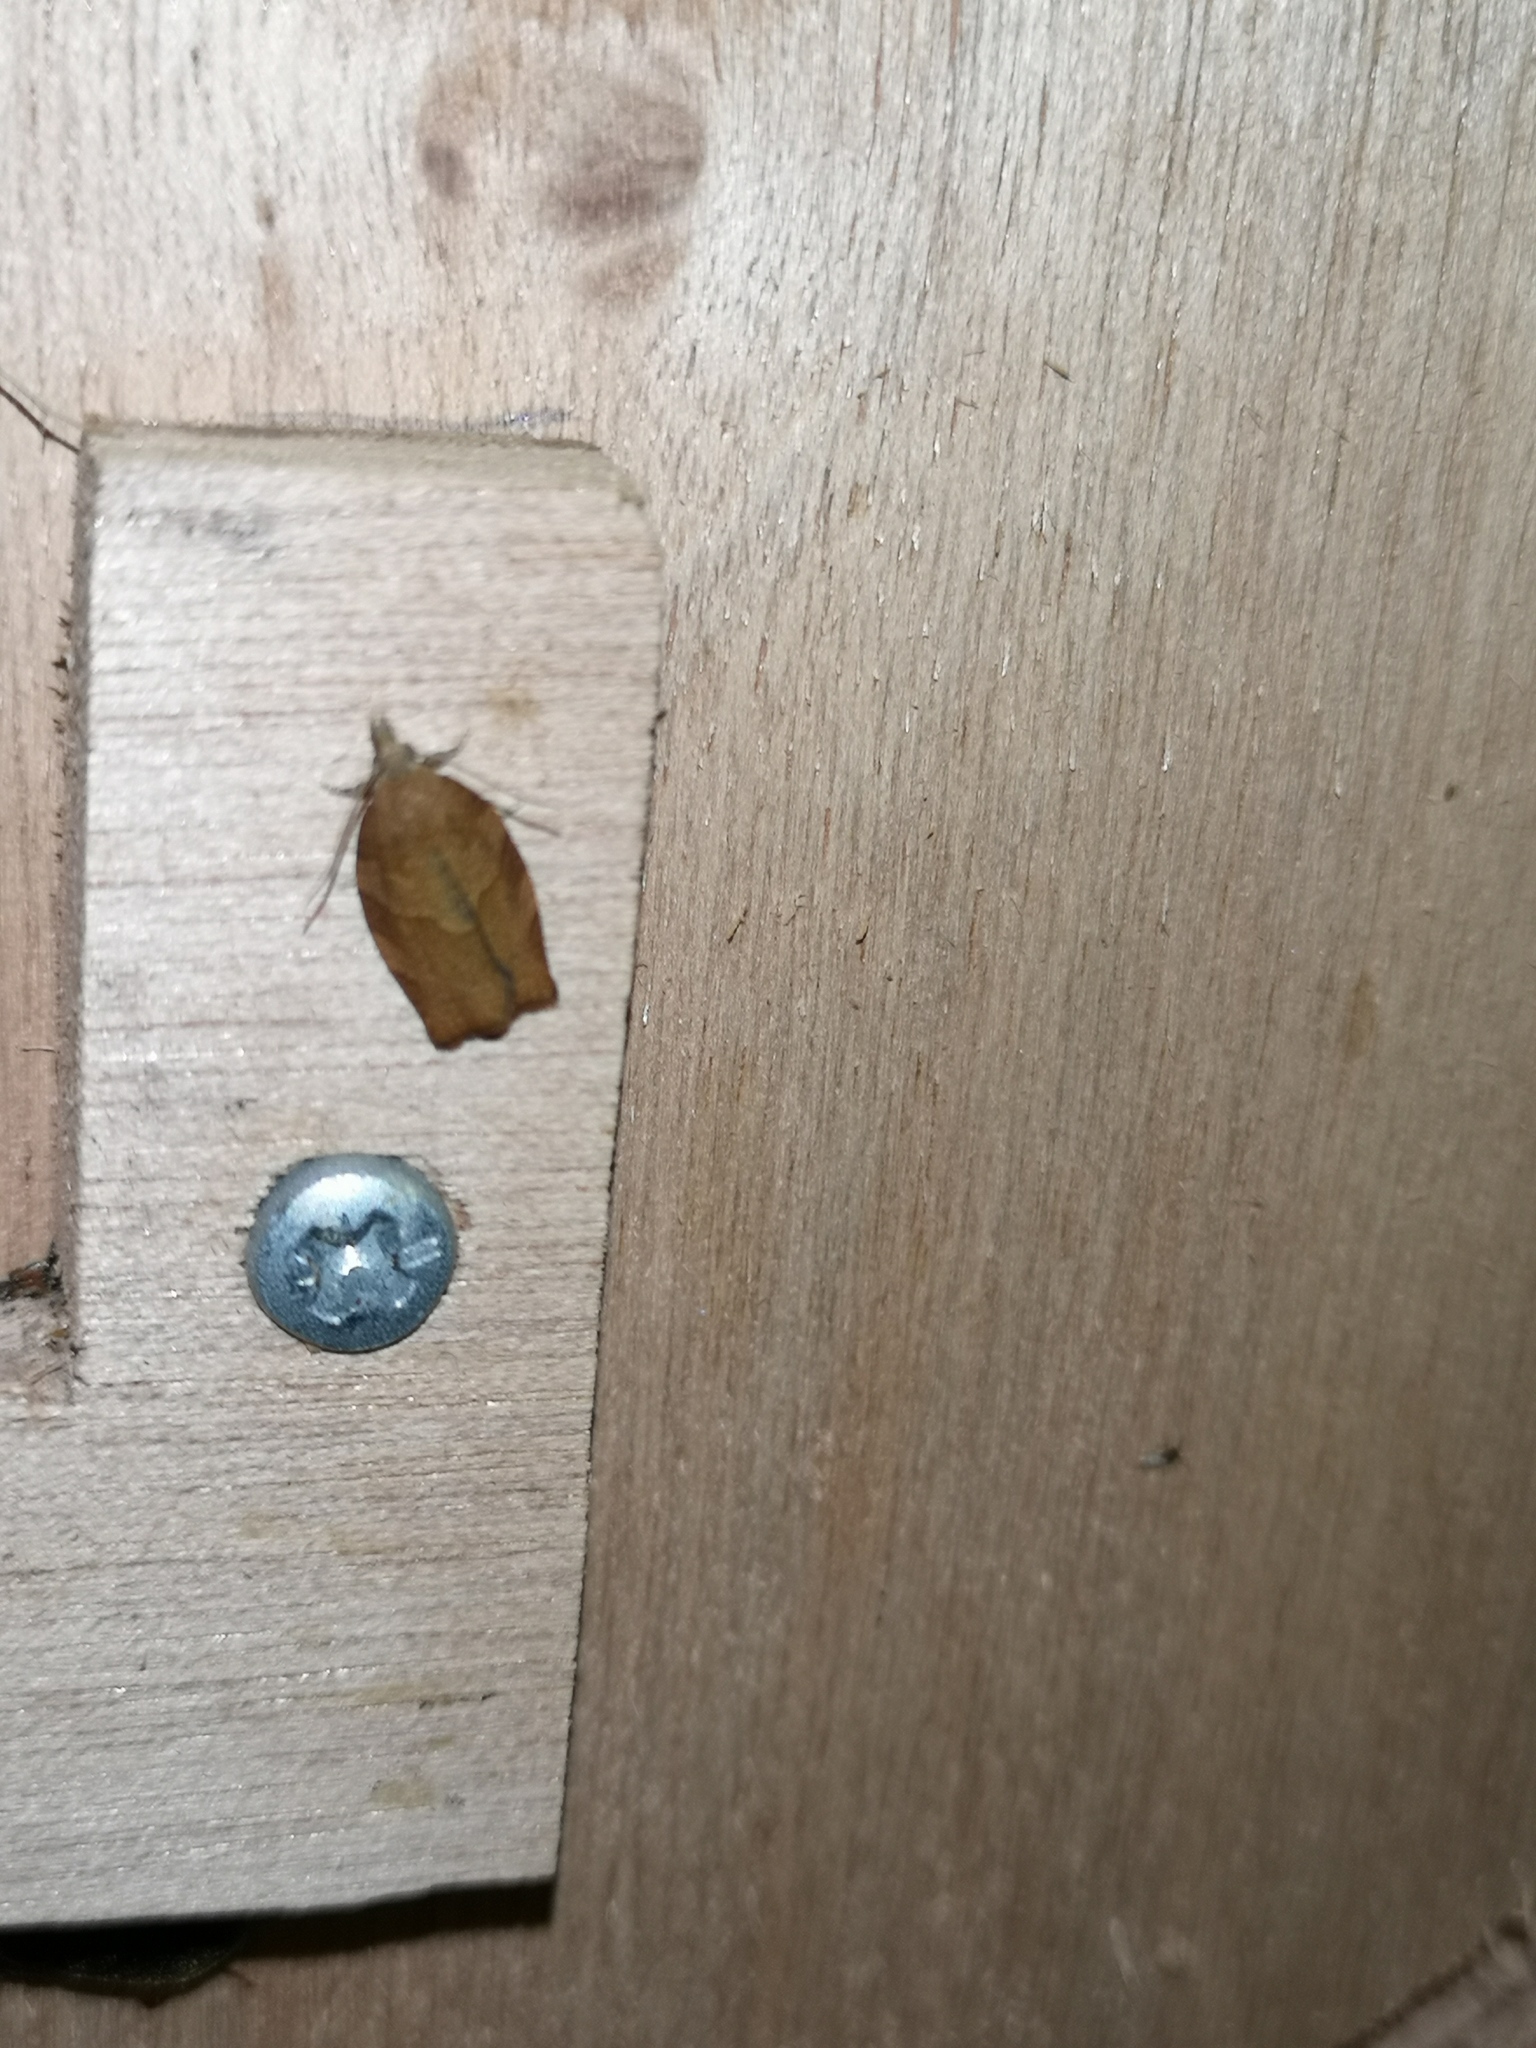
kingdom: Animalia
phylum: Arthropoda
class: Insecta
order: Lepidoptera
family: Tortricidae
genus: Pandemis
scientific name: Pandemis heparana
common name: Dark fruit-tree tortrix
